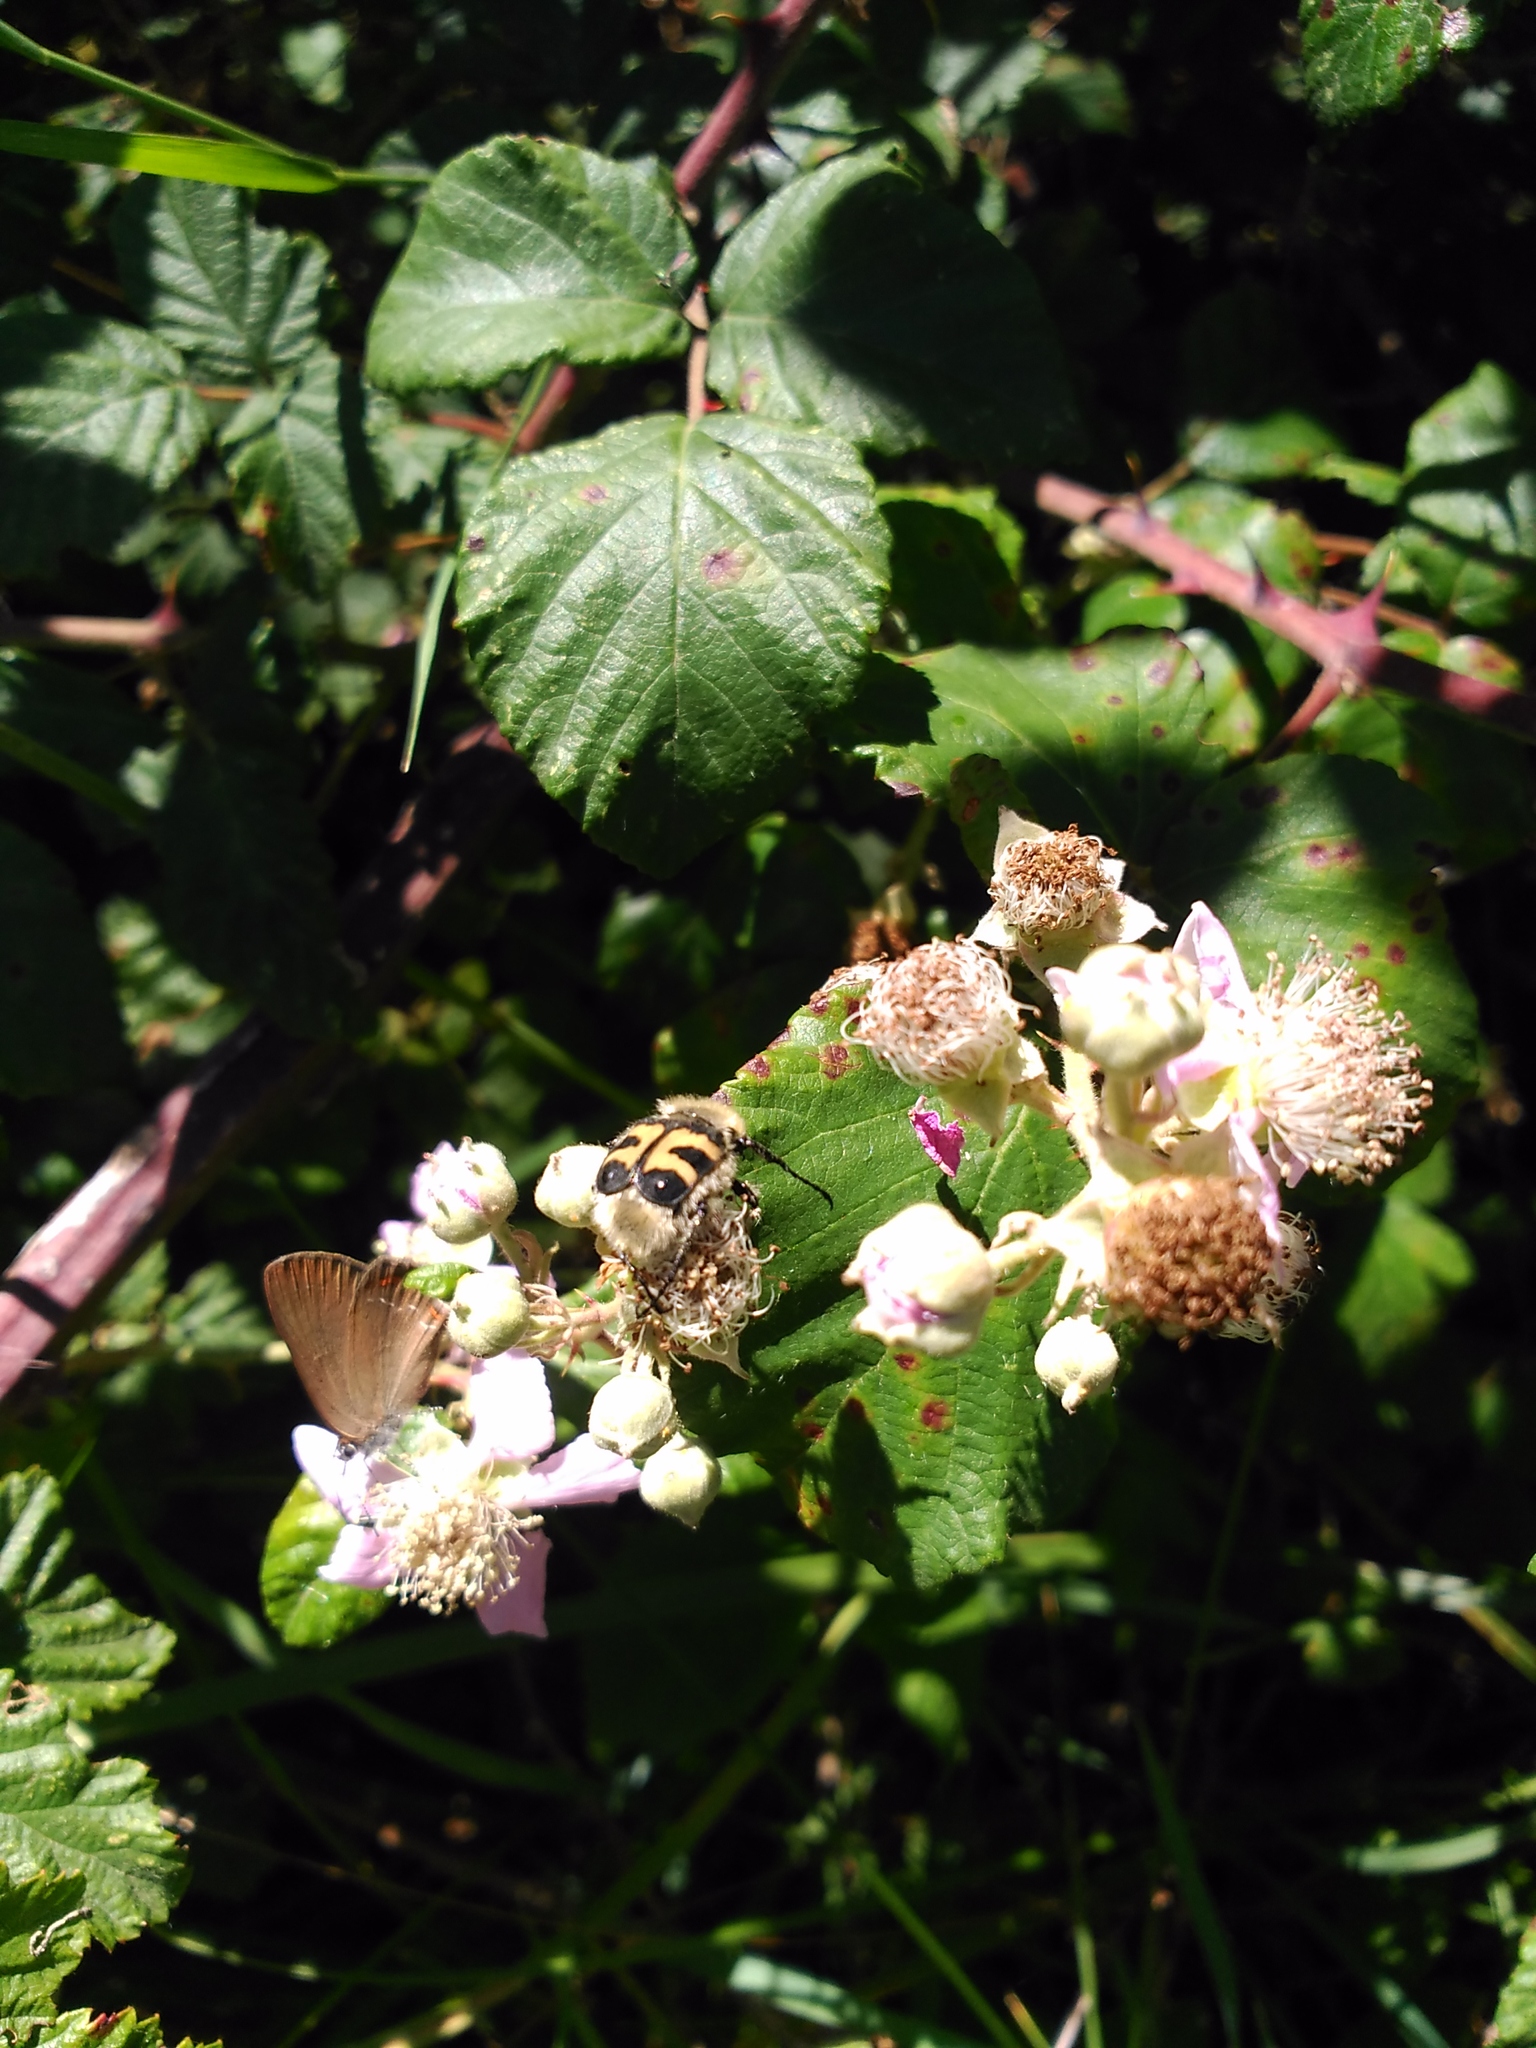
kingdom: Animalia
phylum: Arthropoda
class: Insecta
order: Coleoptera
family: Scarabaeidae
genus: Trichius
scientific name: Trichius fasciatus
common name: Bee beetle
